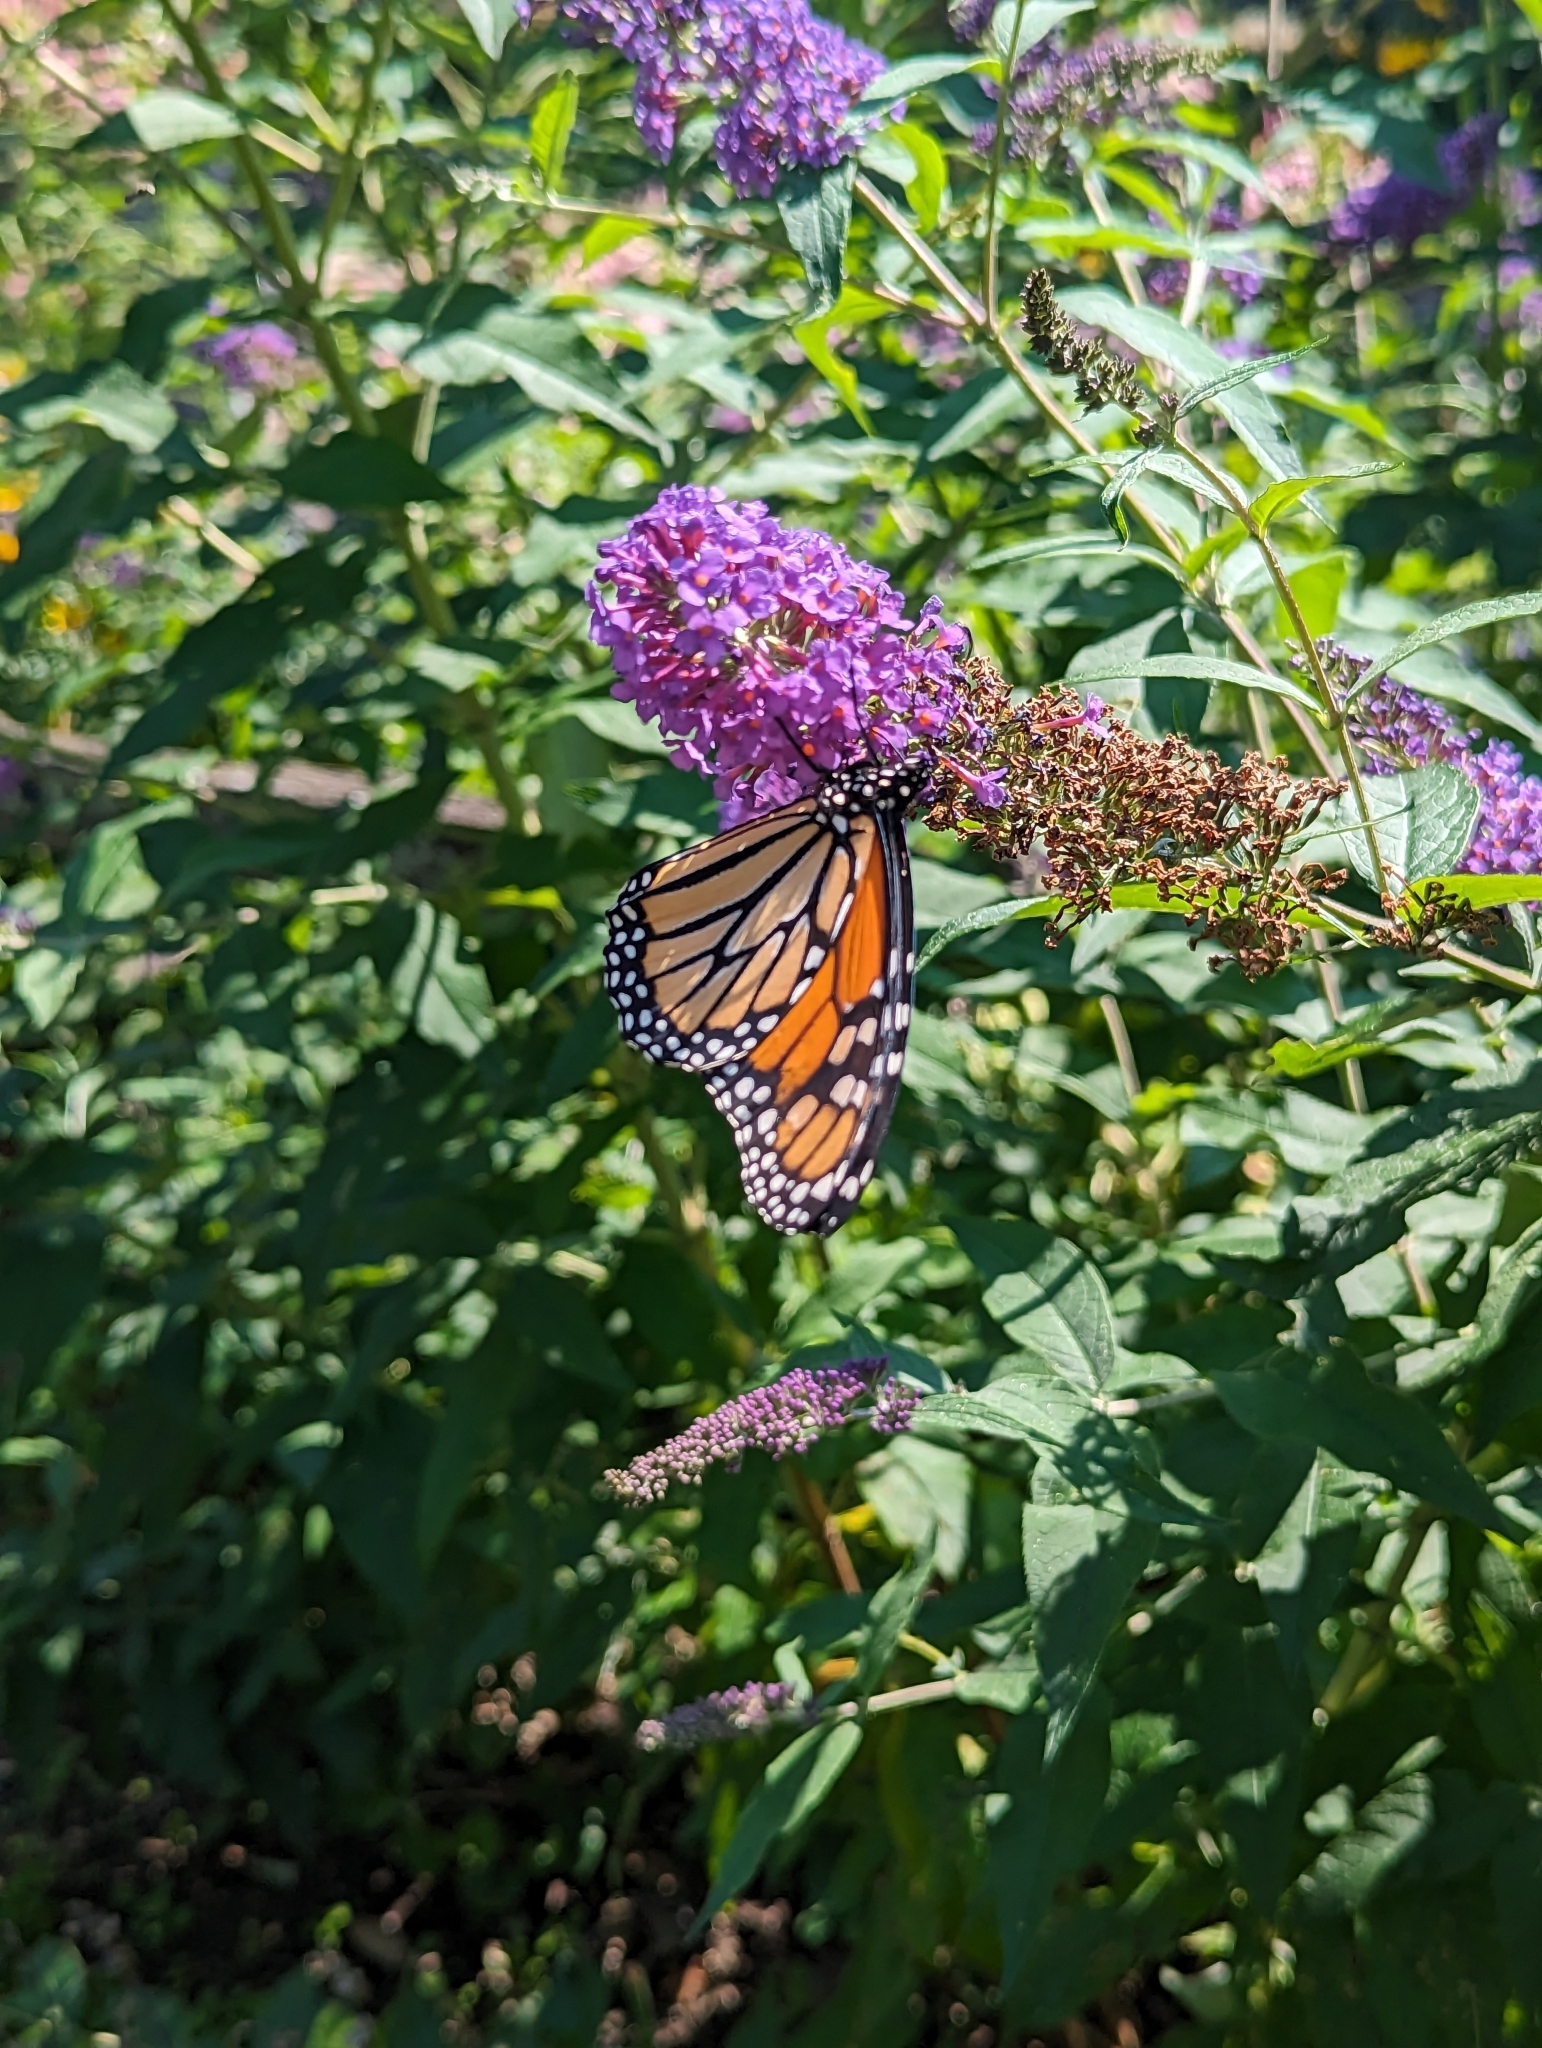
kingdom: Animalia
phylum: Arthropoda
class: Insecta
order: Lepidoptera
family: Nymphalidae
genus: Danaus
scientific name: Danaus plexippus
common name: Monarch
